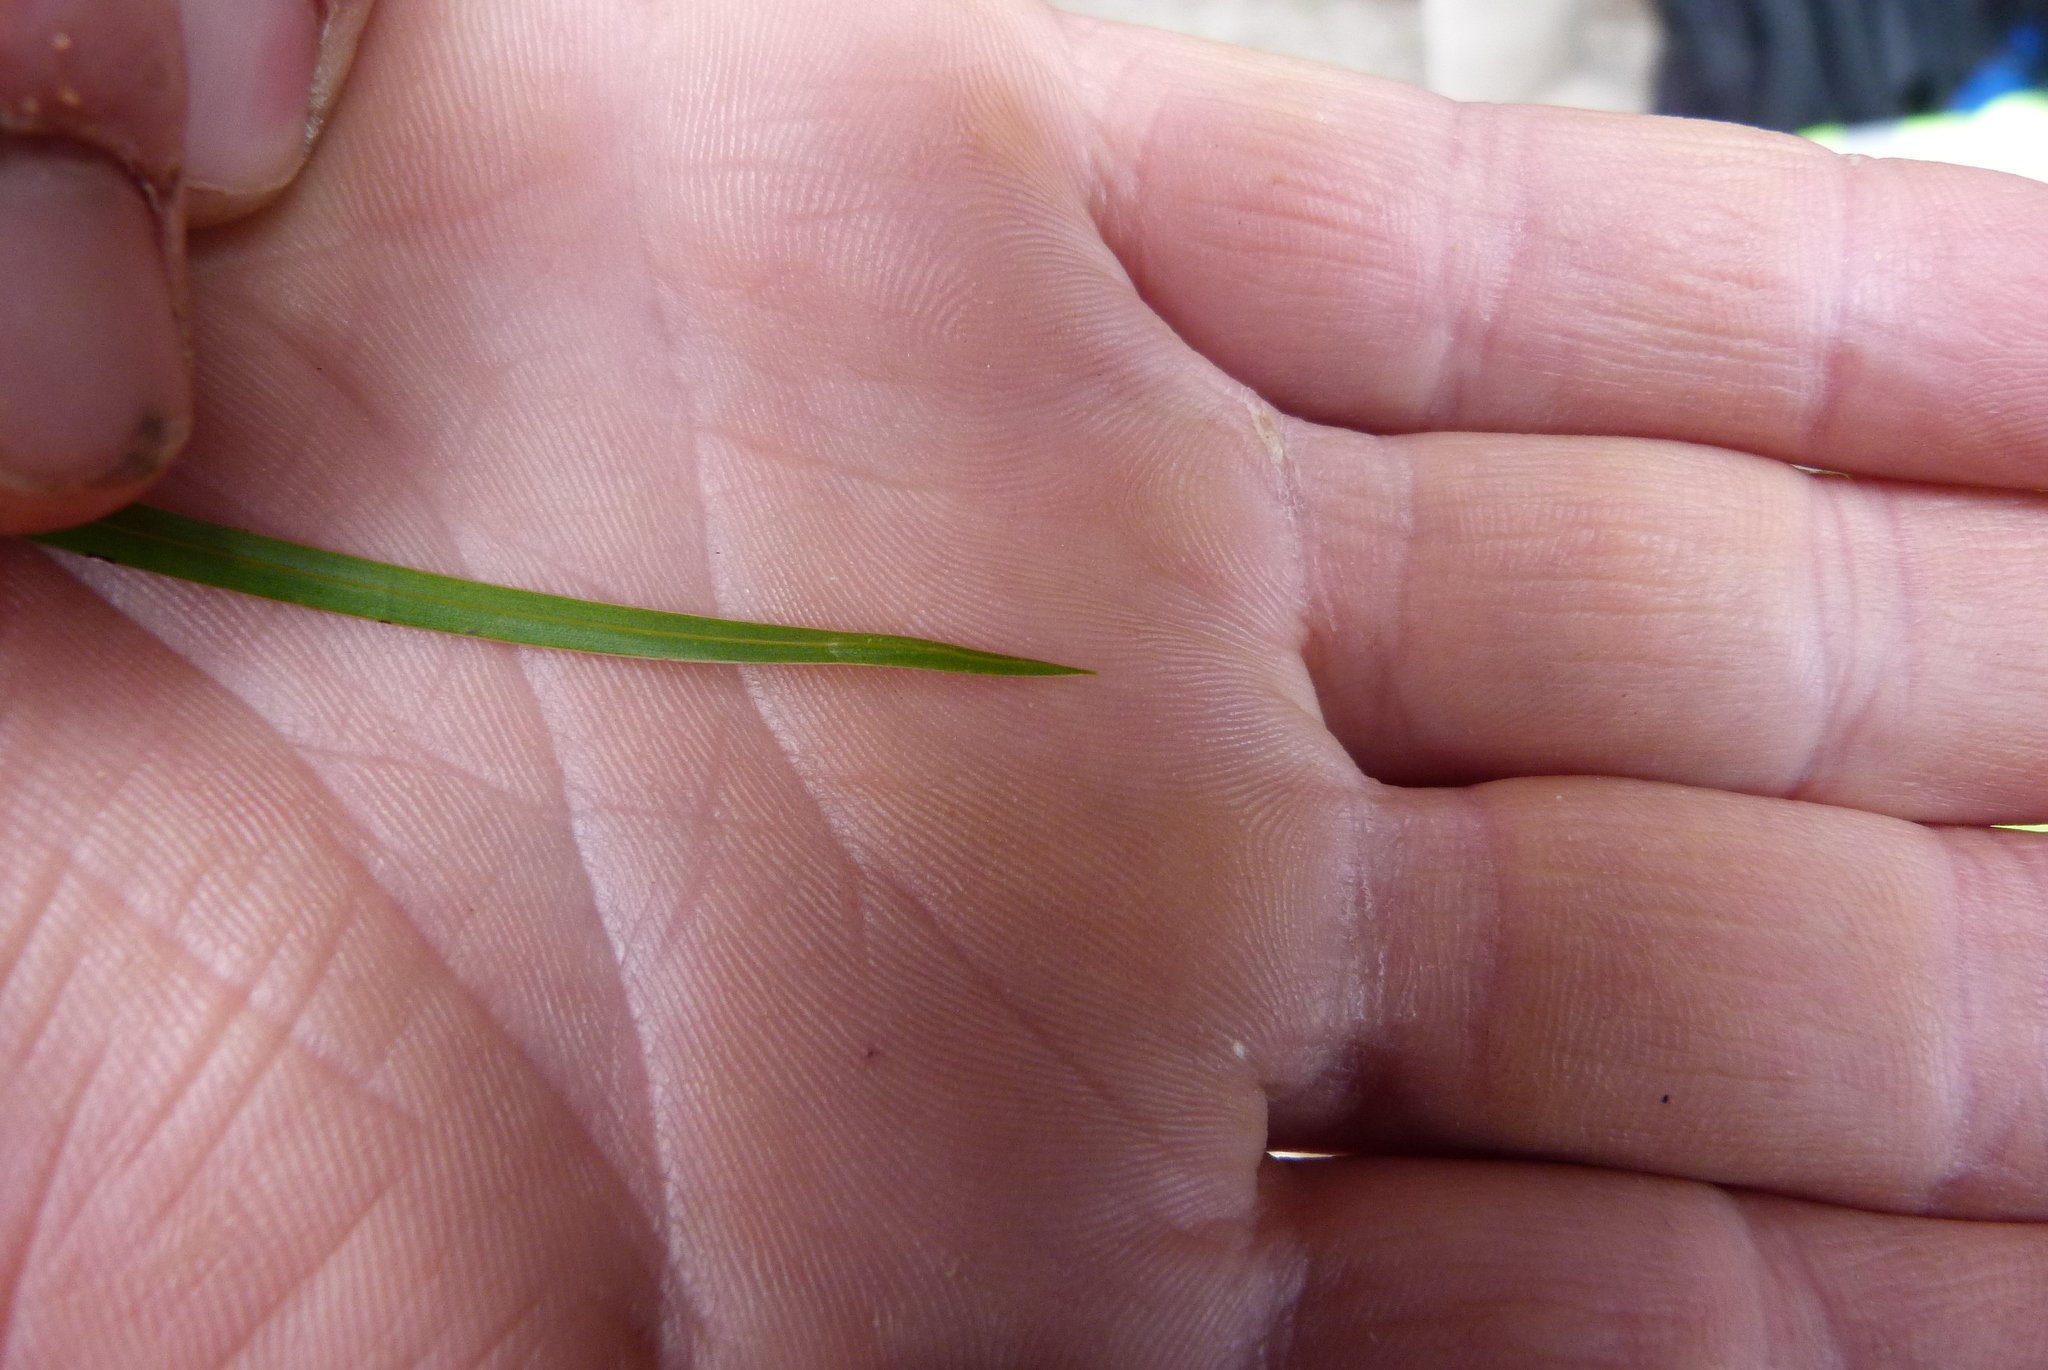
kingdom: Plantae
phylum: Tracheophyta
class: Liliopsida
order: Asparagales
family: Orchidaceae
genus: Earina
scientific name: Earina mucronata
